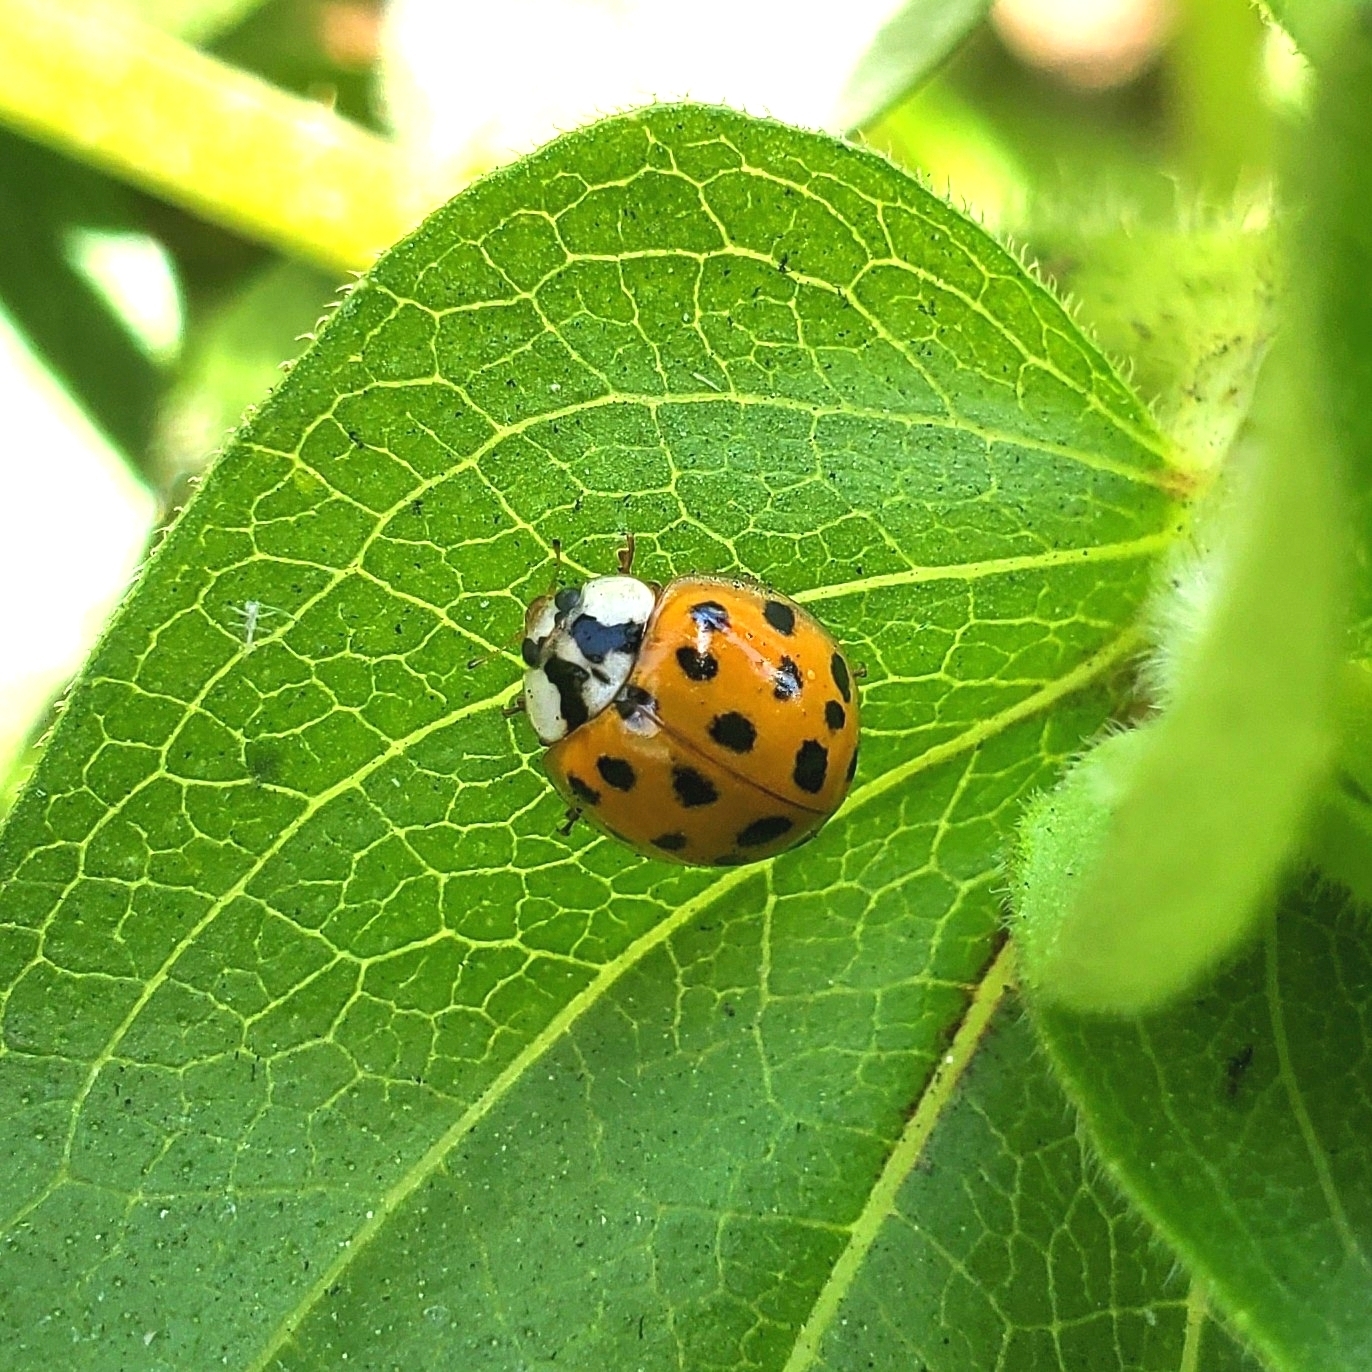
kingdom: Animalia
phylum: Arthropoda
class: Insecta
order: Coleoptera
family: Coccinellidae
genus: Harmonia
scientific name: Harmonia axyridis
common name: Harlequin ladybird
